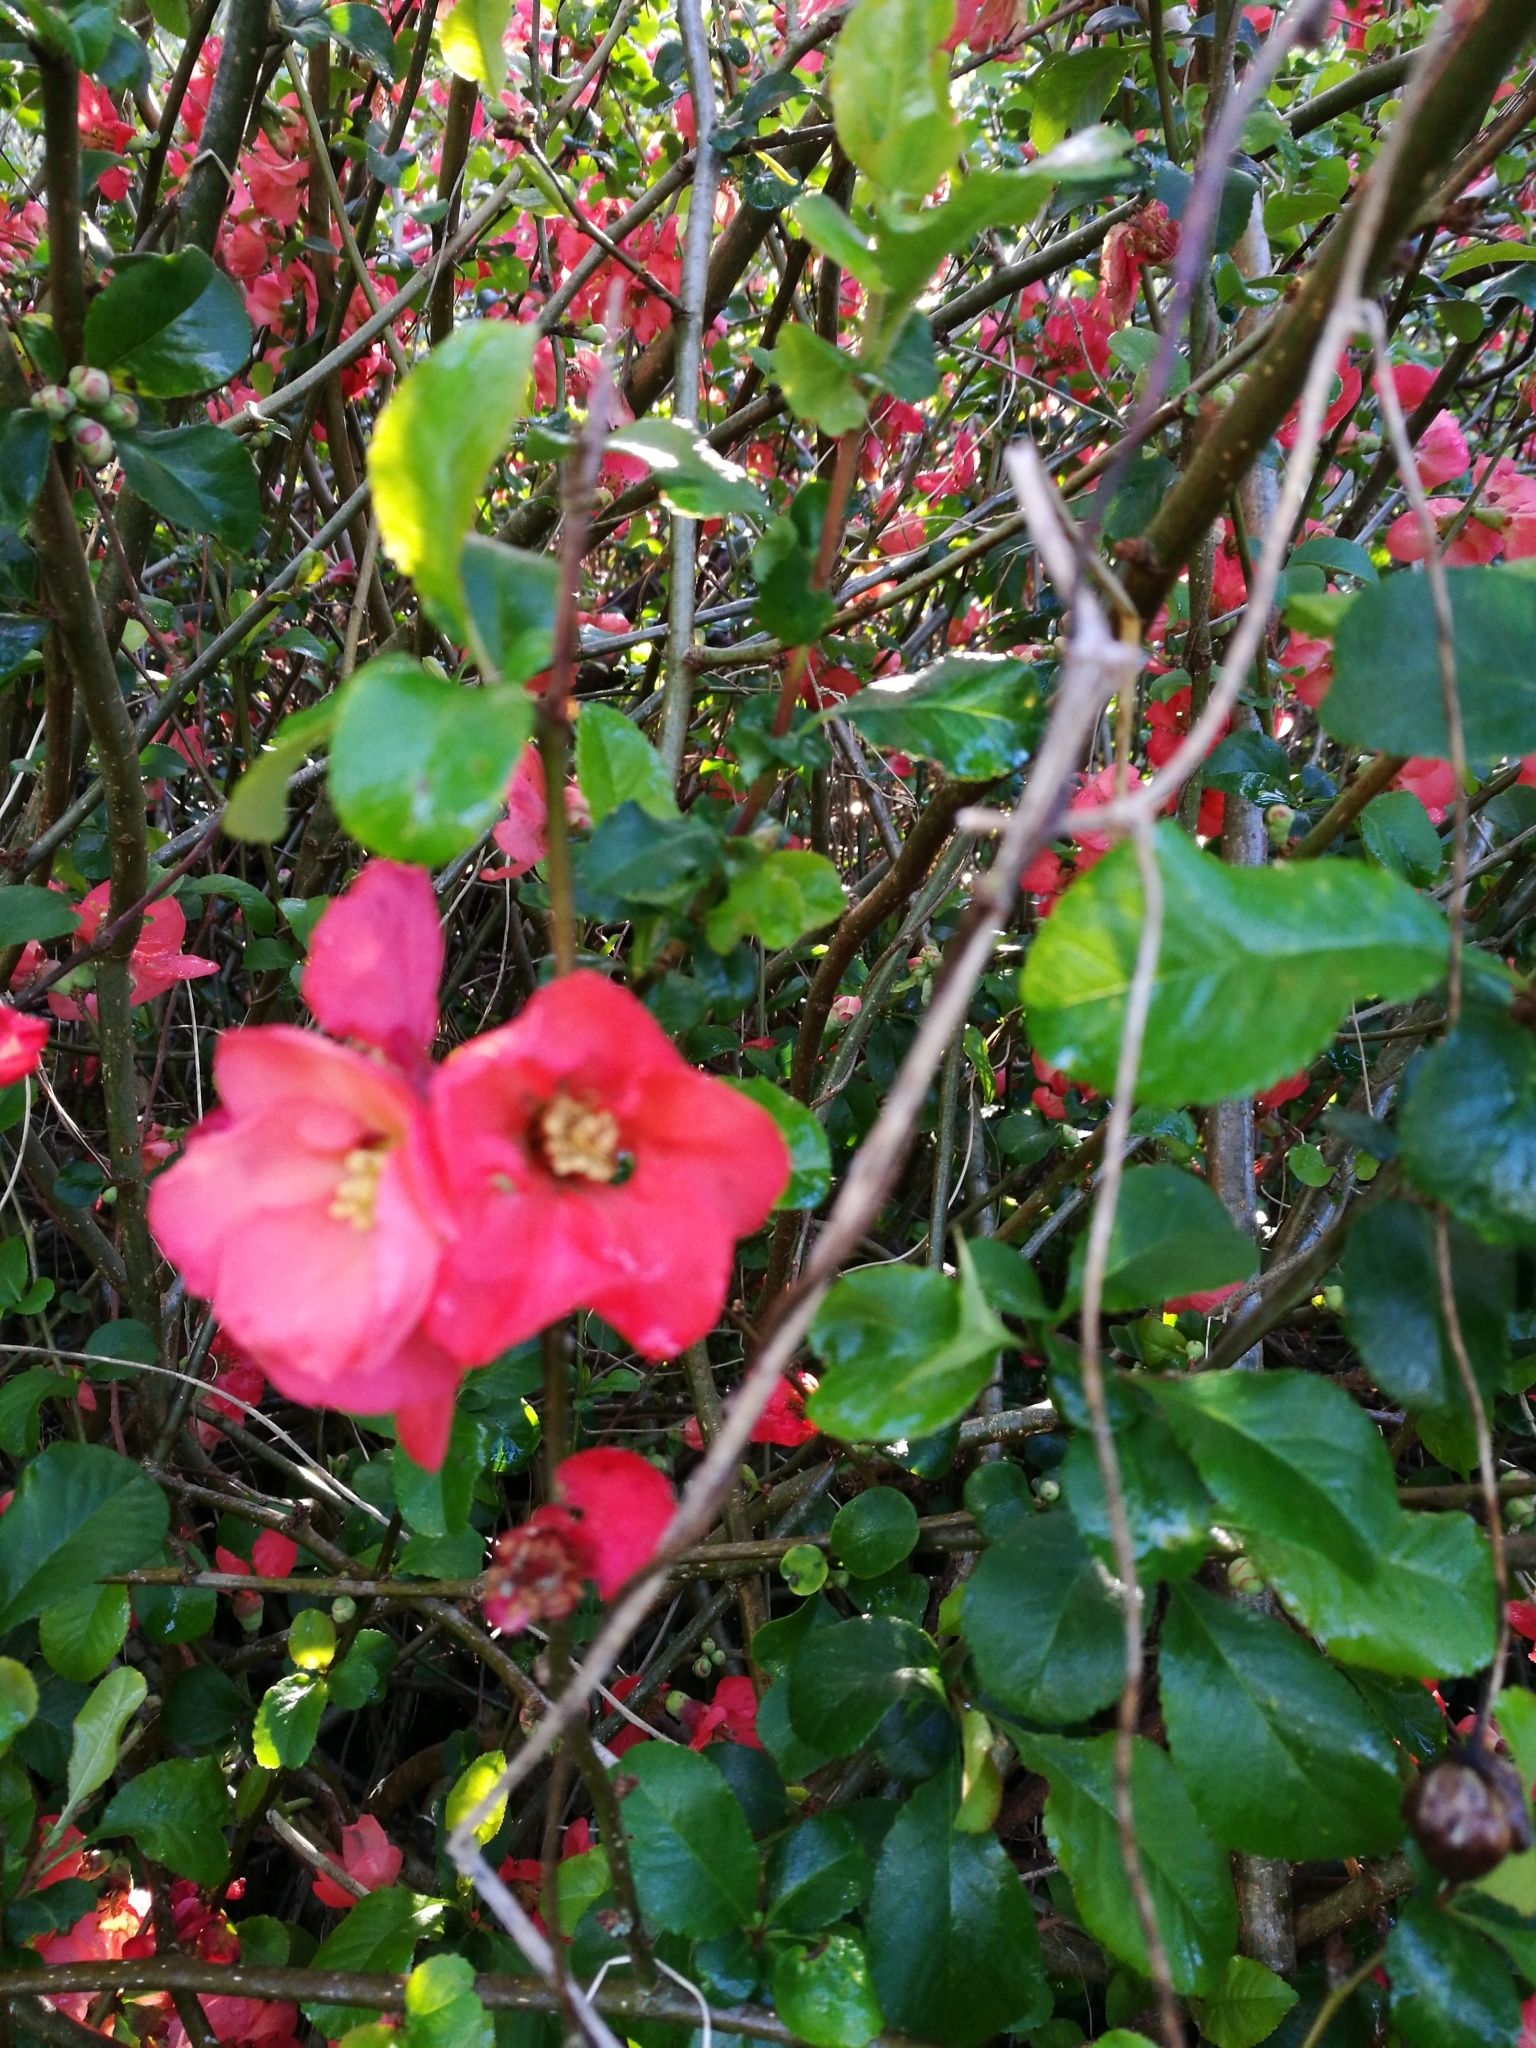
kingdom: Plantae
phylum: Tracheophyta
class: Magnoliopsida
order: Rosales
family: Rosaceae
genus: Chaenomeles
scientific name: Chaenomeles speciosa
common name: Japanese quince
